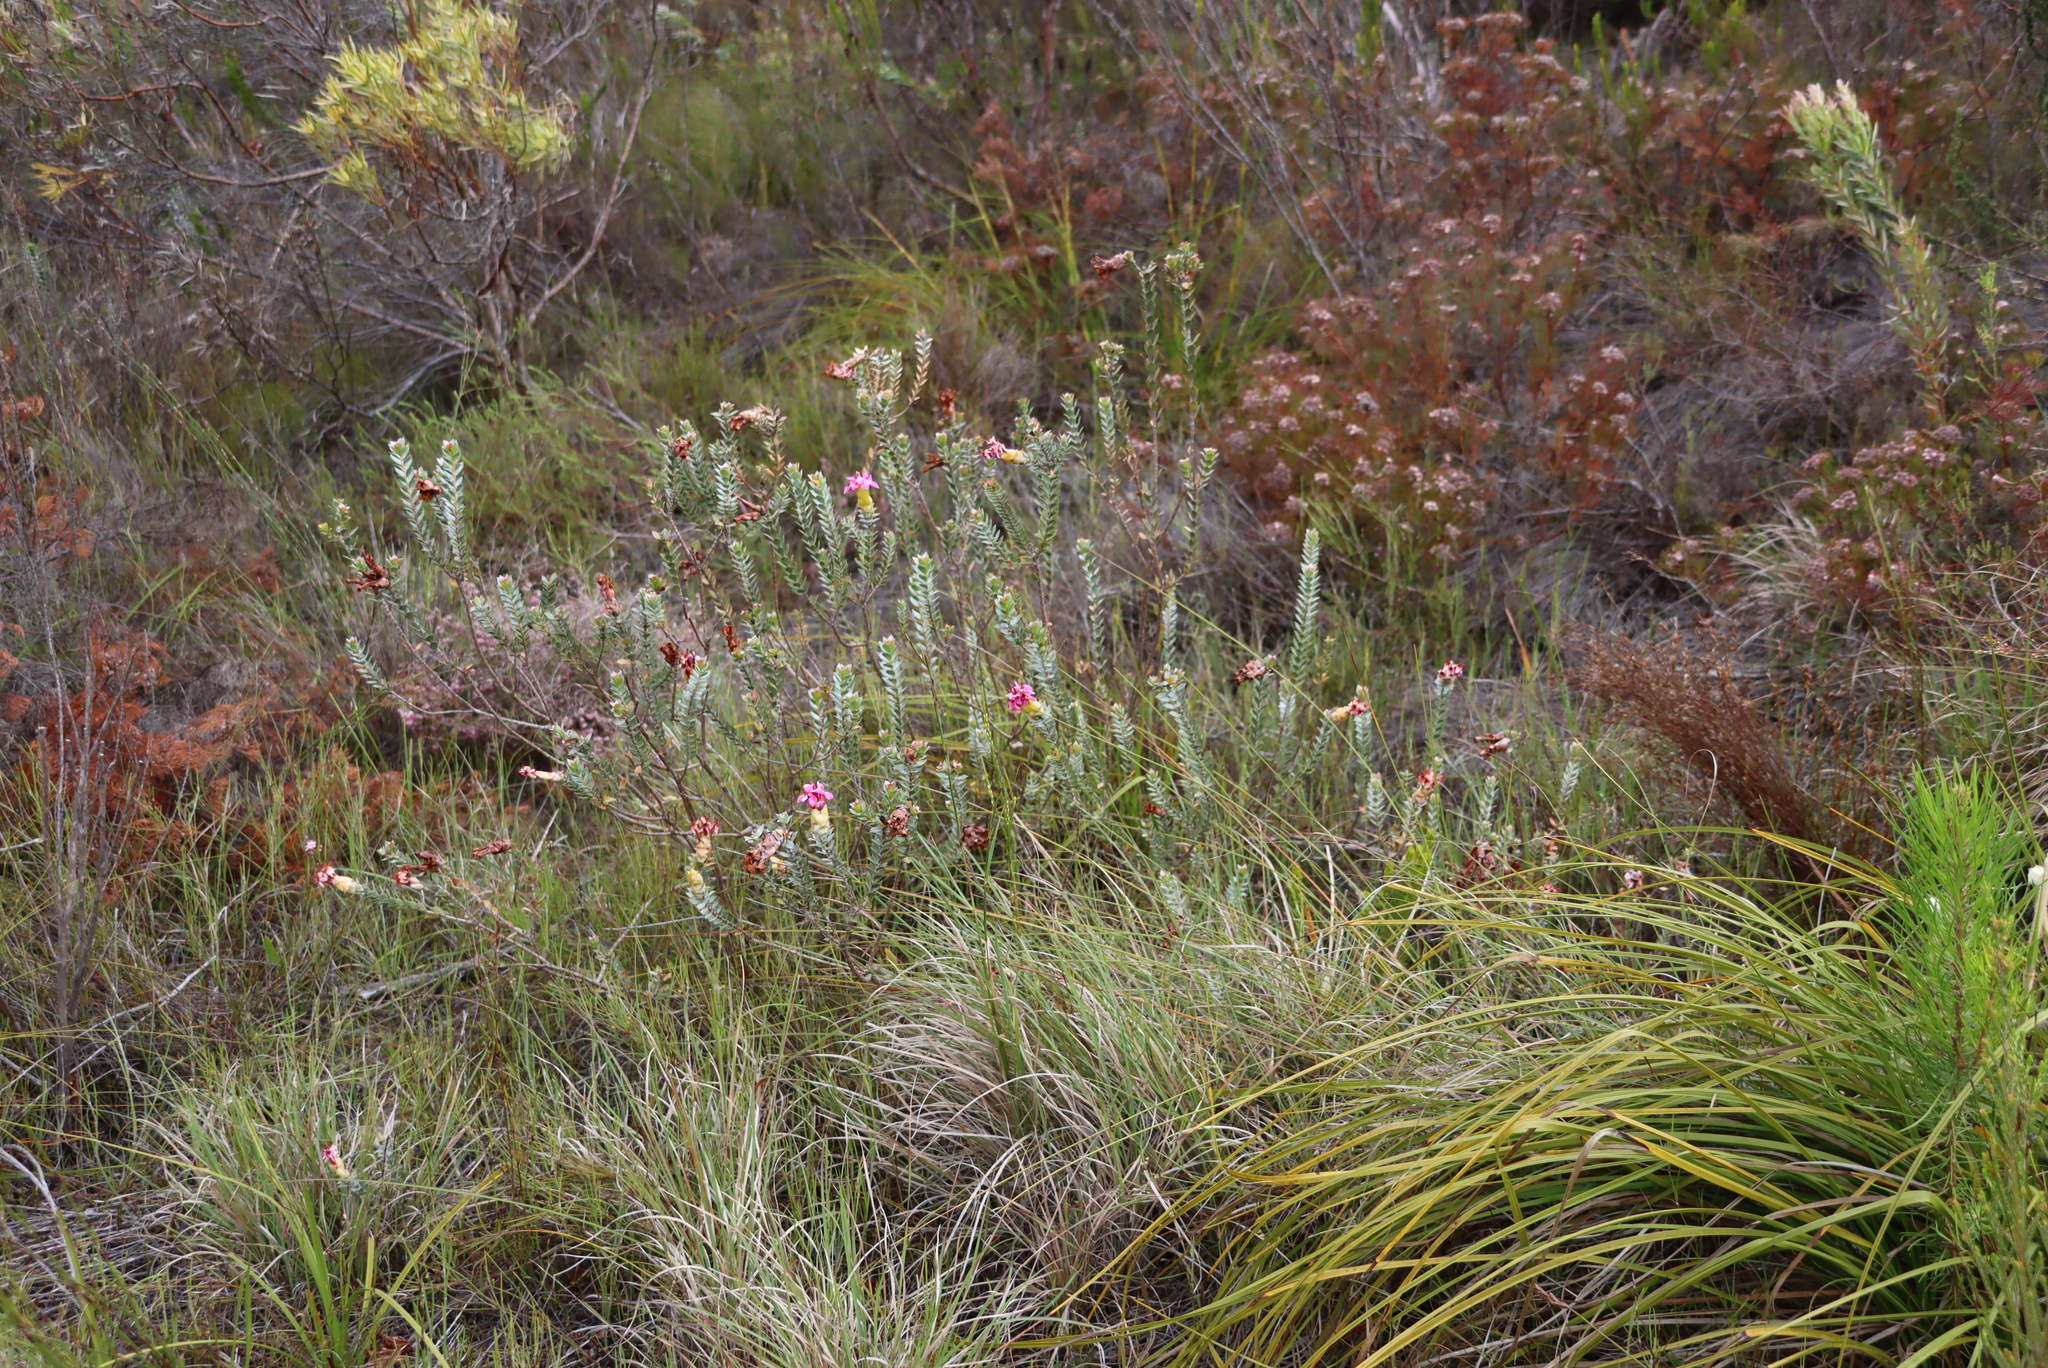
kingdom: Plantae
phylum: Tracheophyta
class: Magnoliopsida
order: Myrtales
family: Penaeaceae
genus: Saltera
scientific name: Saltera sarcocolla
